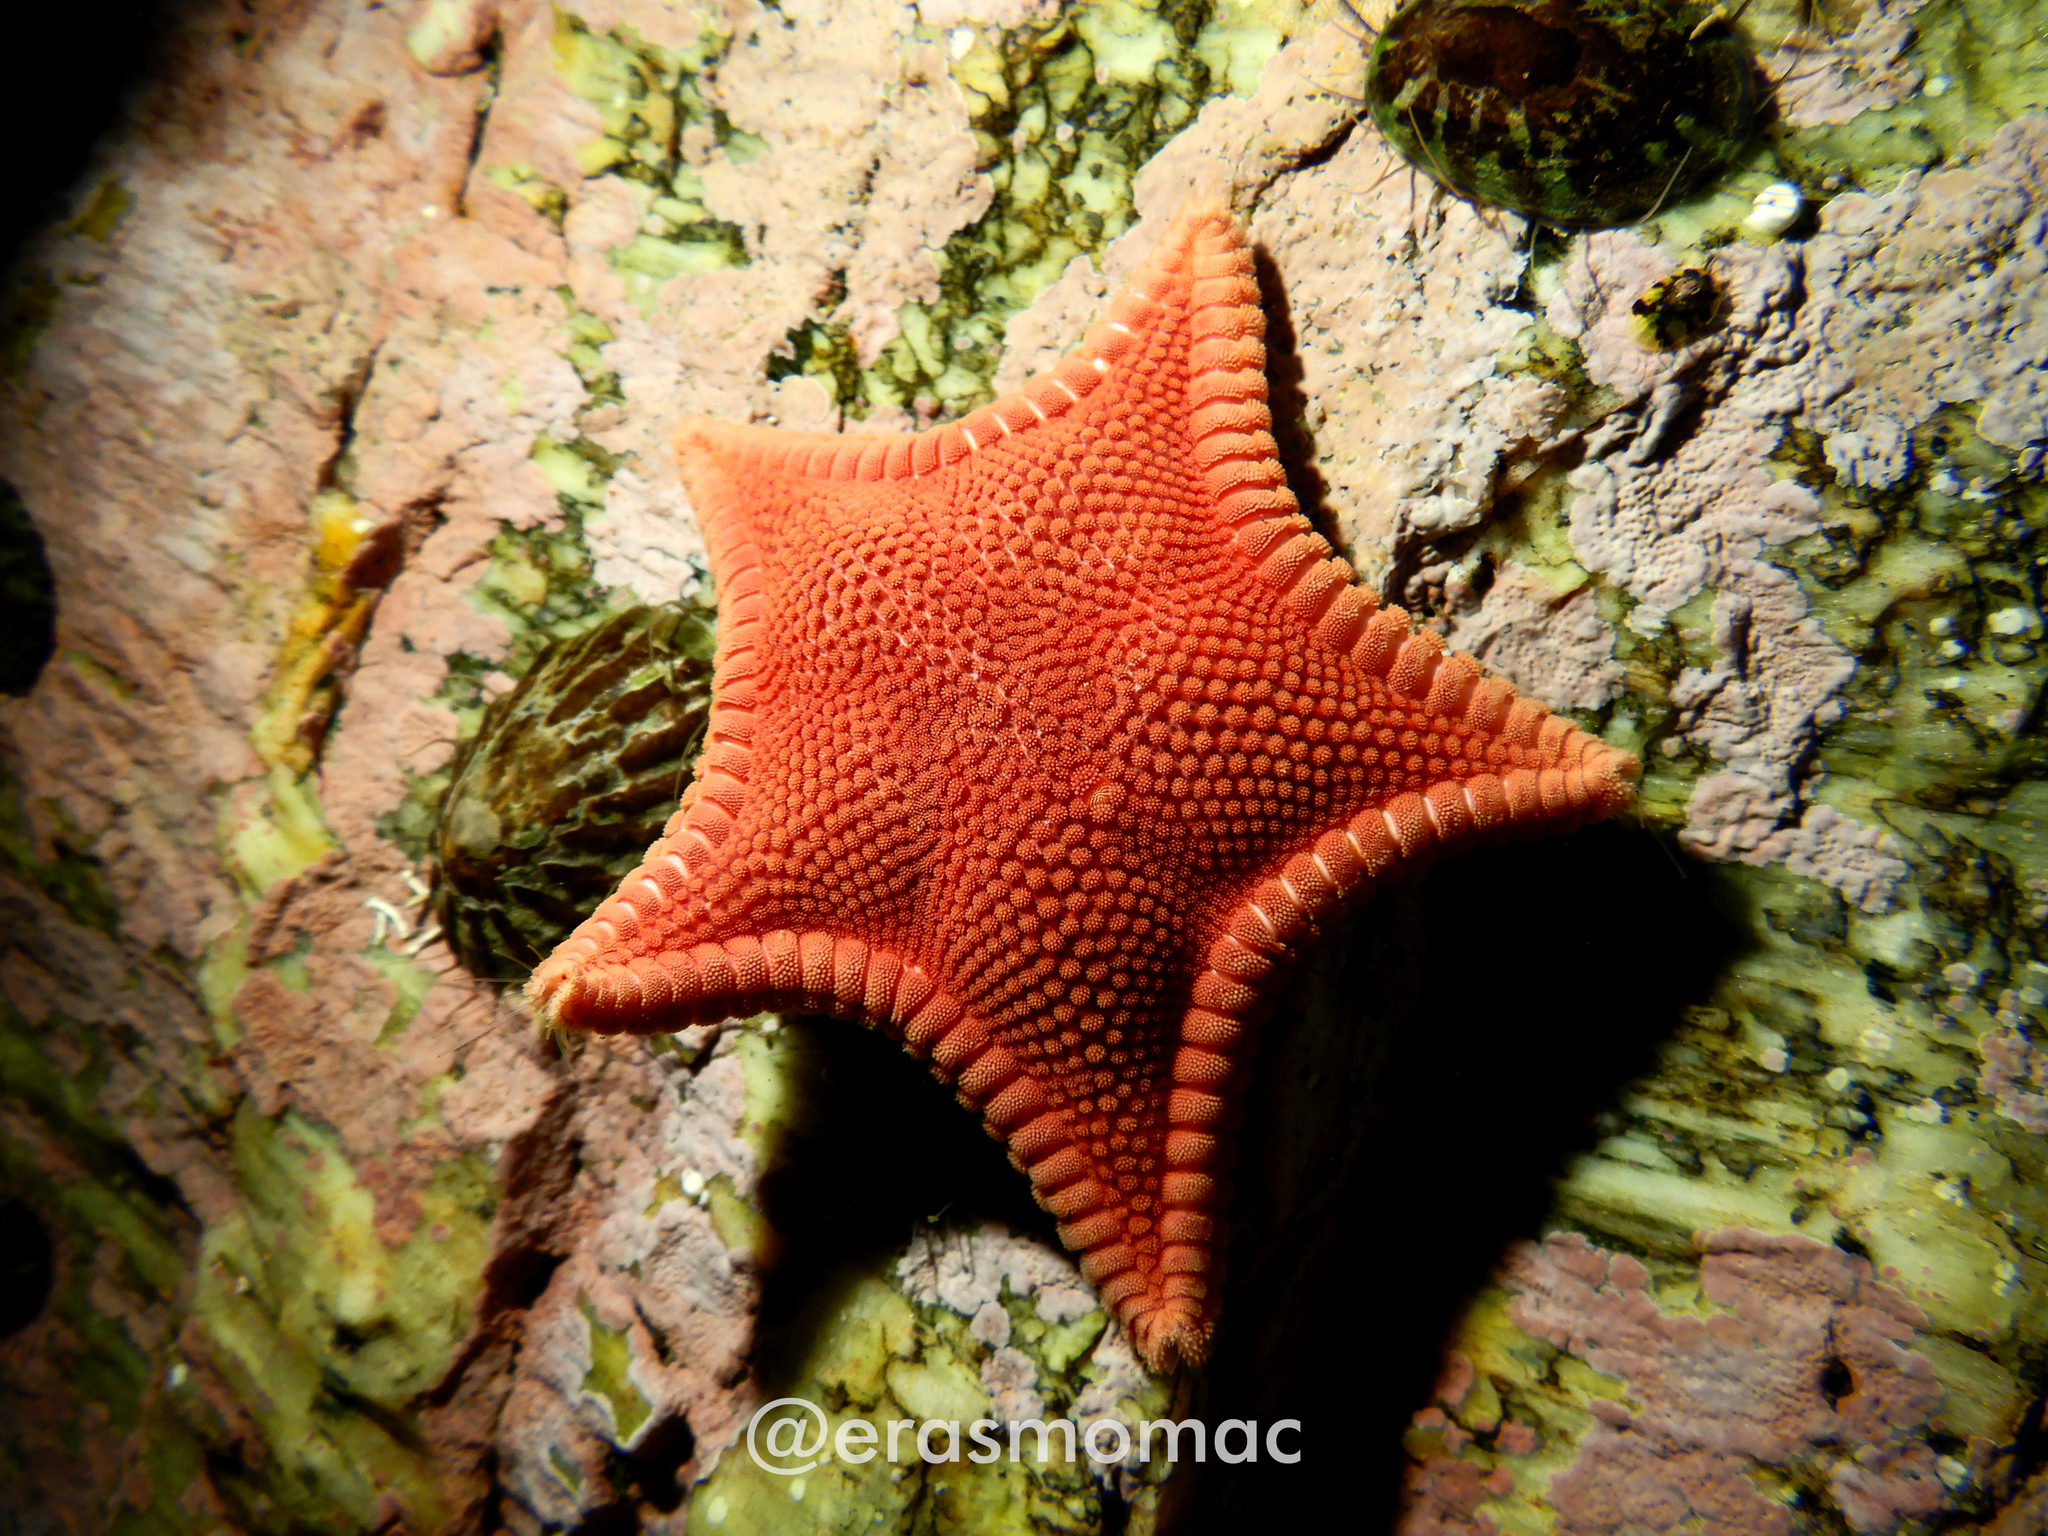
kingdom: Animalia
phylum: Echinodermata
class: Asteroidea
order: Valvatida
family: Odontasteridae
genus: Odontaster
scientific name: Odontaster penicillatus
